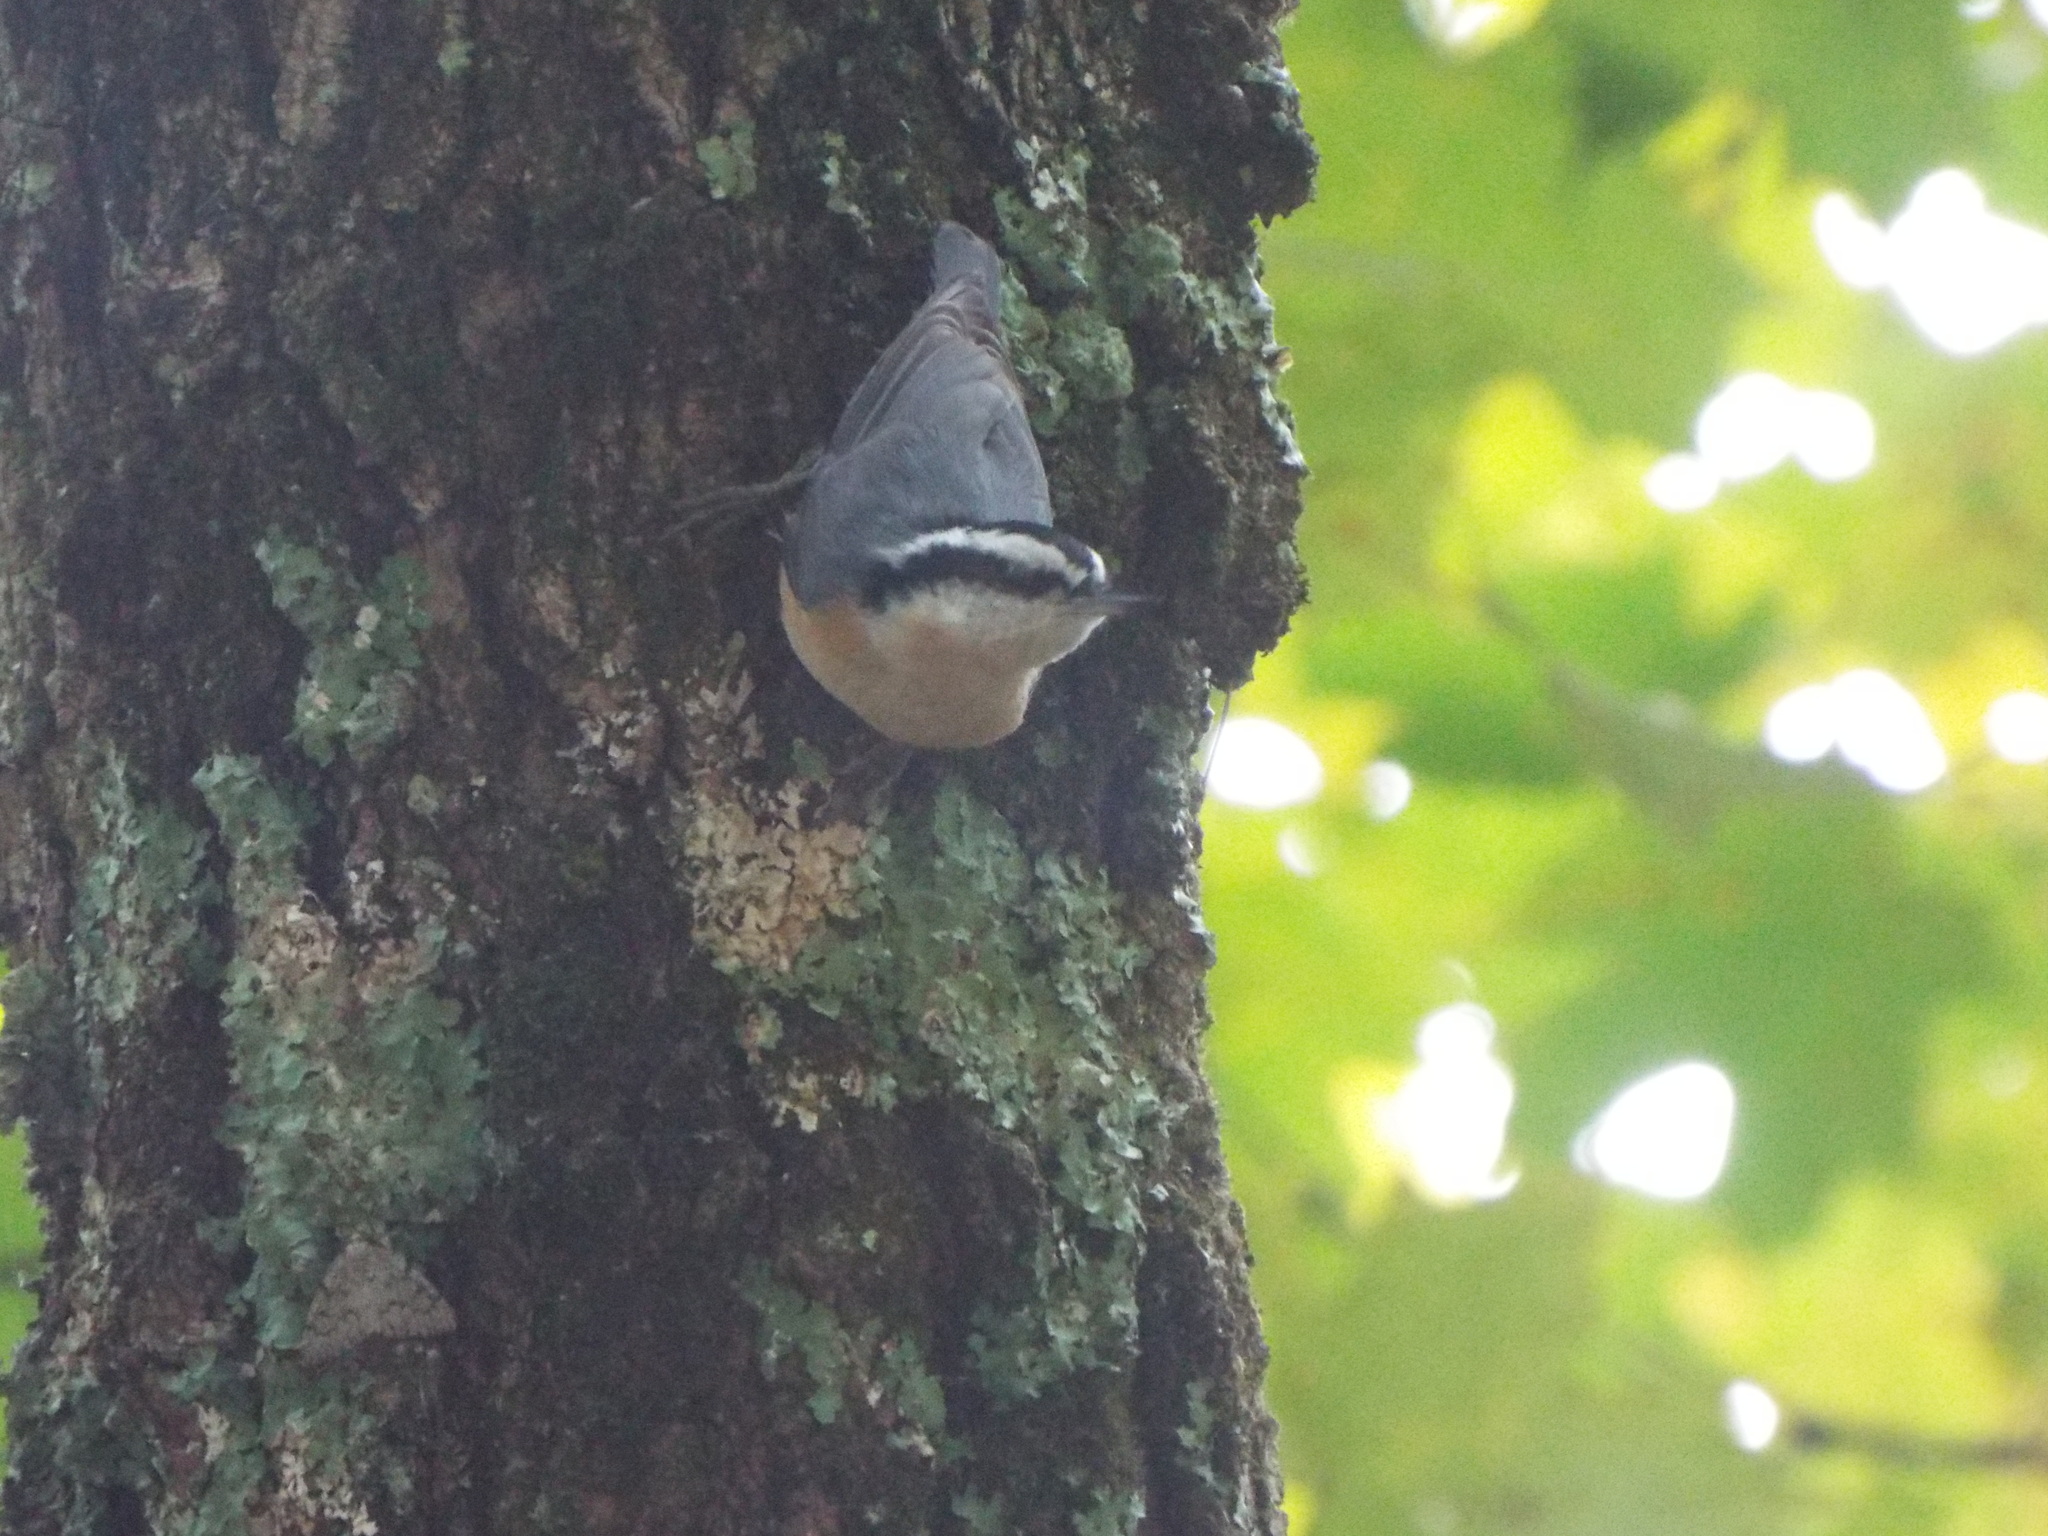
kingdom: Animalia
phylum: Chordata
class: Aves
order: Passeriformes
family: Sittidae
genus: Sitta
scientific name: Sitta canadensis
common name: Red-breasted nuthatch
